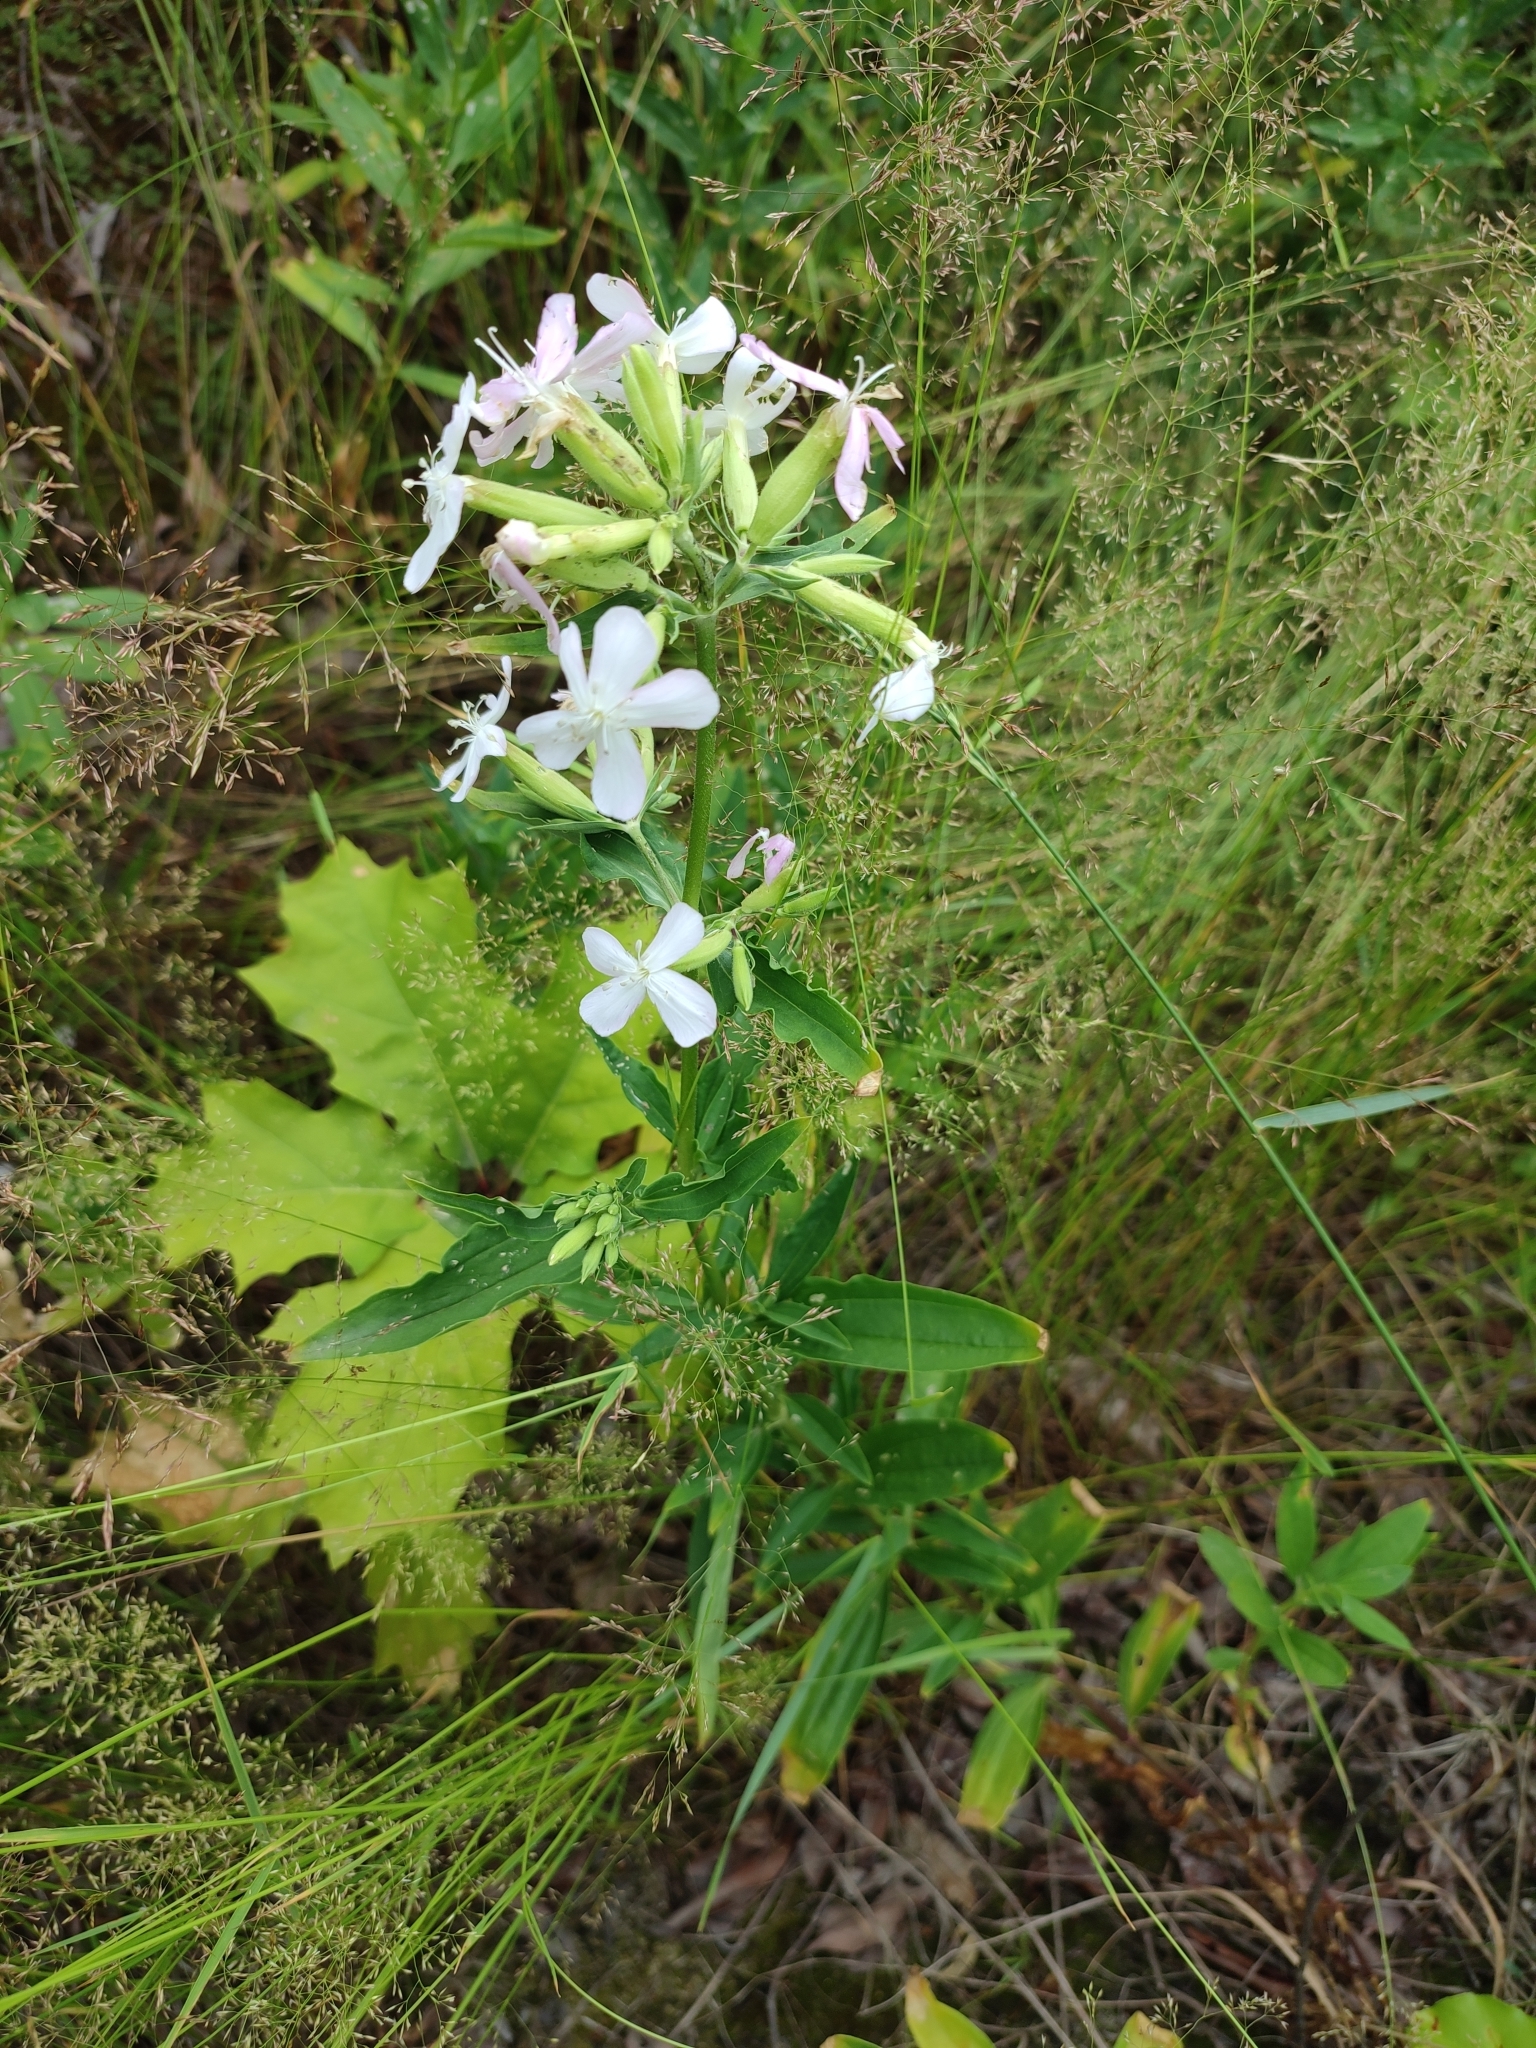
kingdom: Plantae
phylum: Tracheophyta
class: Magnoliopsida
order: Caryophyllales
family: Caryophyllaceae
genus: Saponaria
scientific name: Saponaria officinalis
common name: Soapwort
